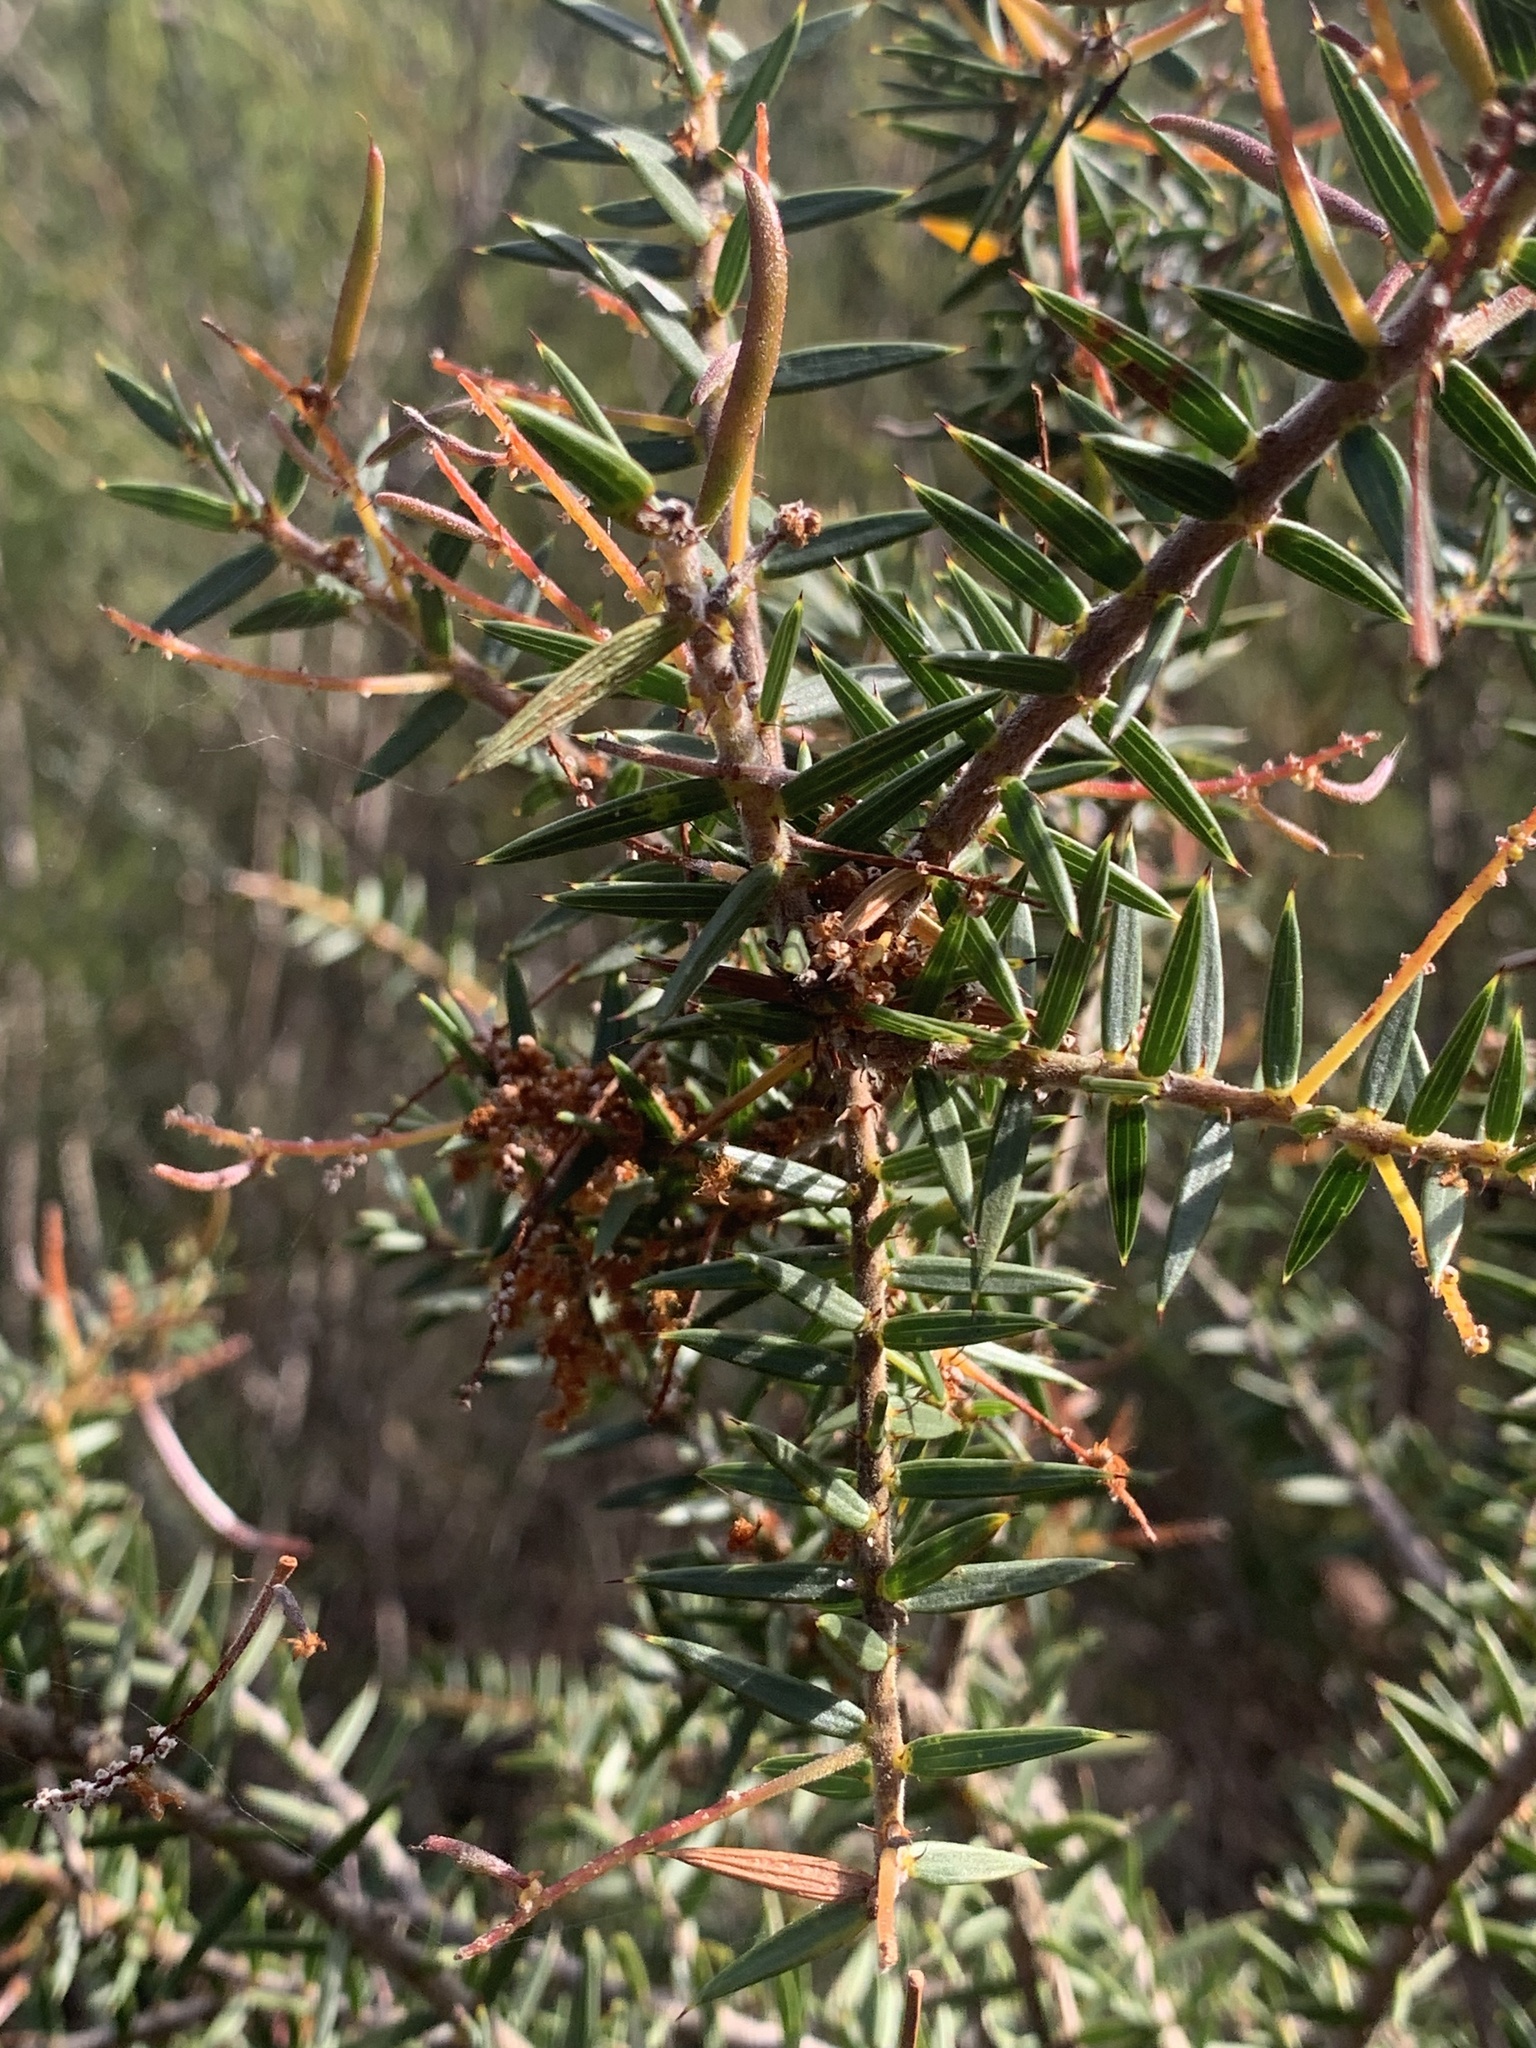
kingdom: Plantae
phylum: Tracheophyta
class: Magnoliopsida
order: Fabales
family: Fabaceae
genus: Acacia
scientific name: Acacia oxycedrus
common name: Spike wattle
